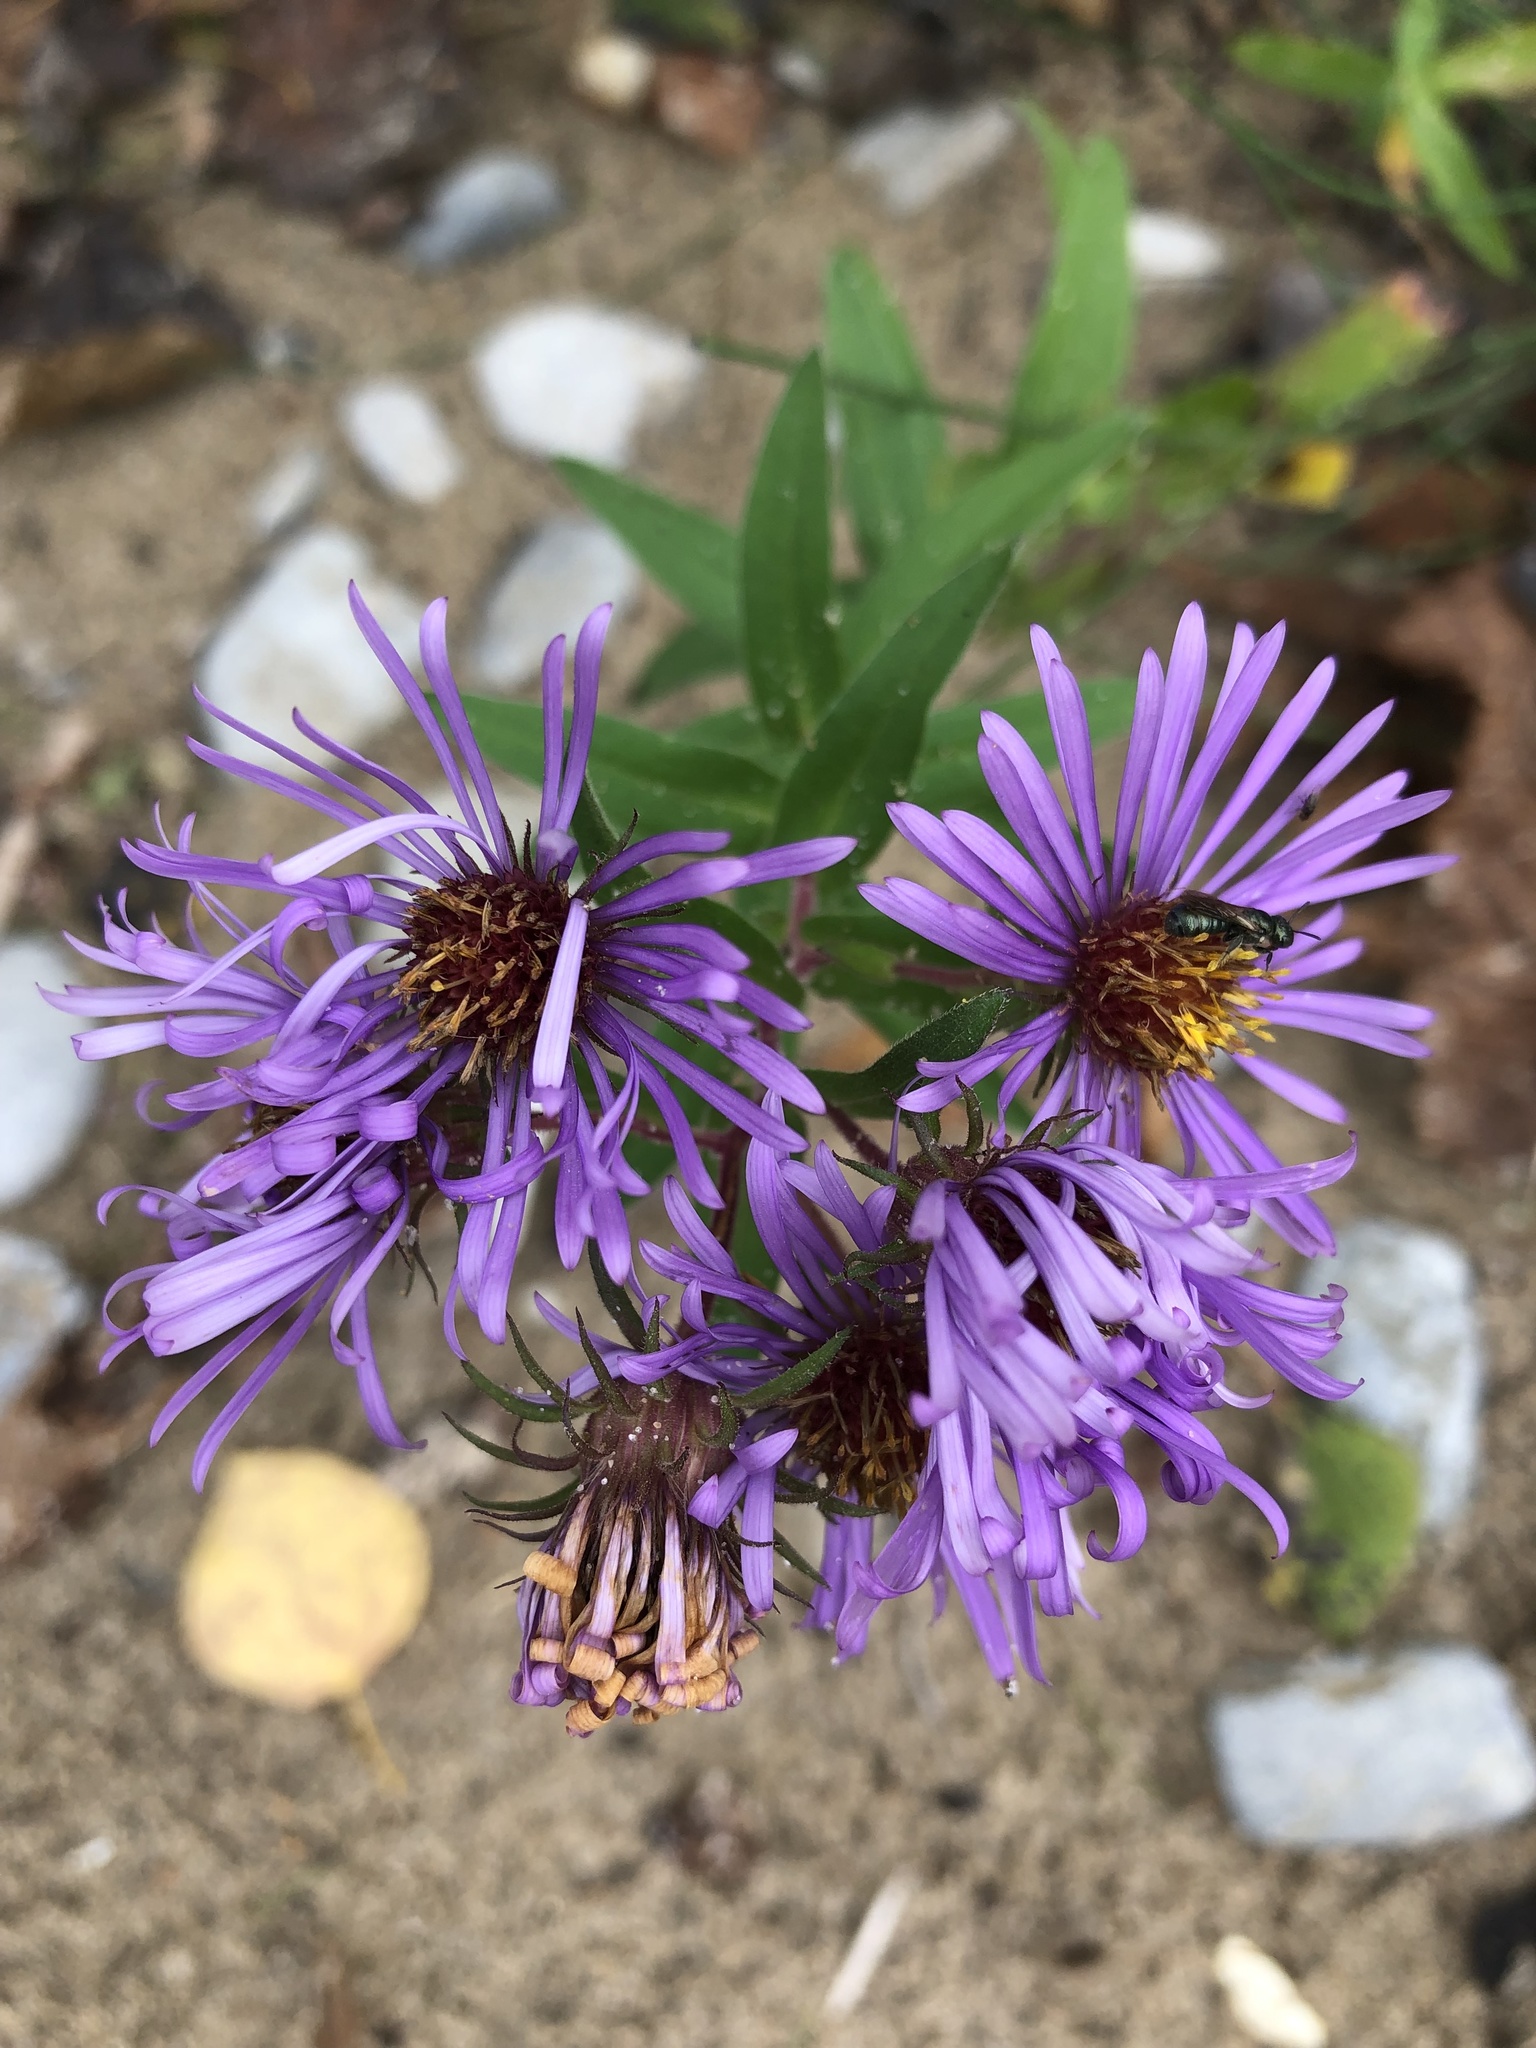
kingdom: Plantae
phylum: Tracheophyta
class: Magnoliopsida
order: Asterales
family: Asteraceae
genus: Symphyotrichum
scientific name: Symphyotrichum novae-angliae
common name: Michaelmas daisy
